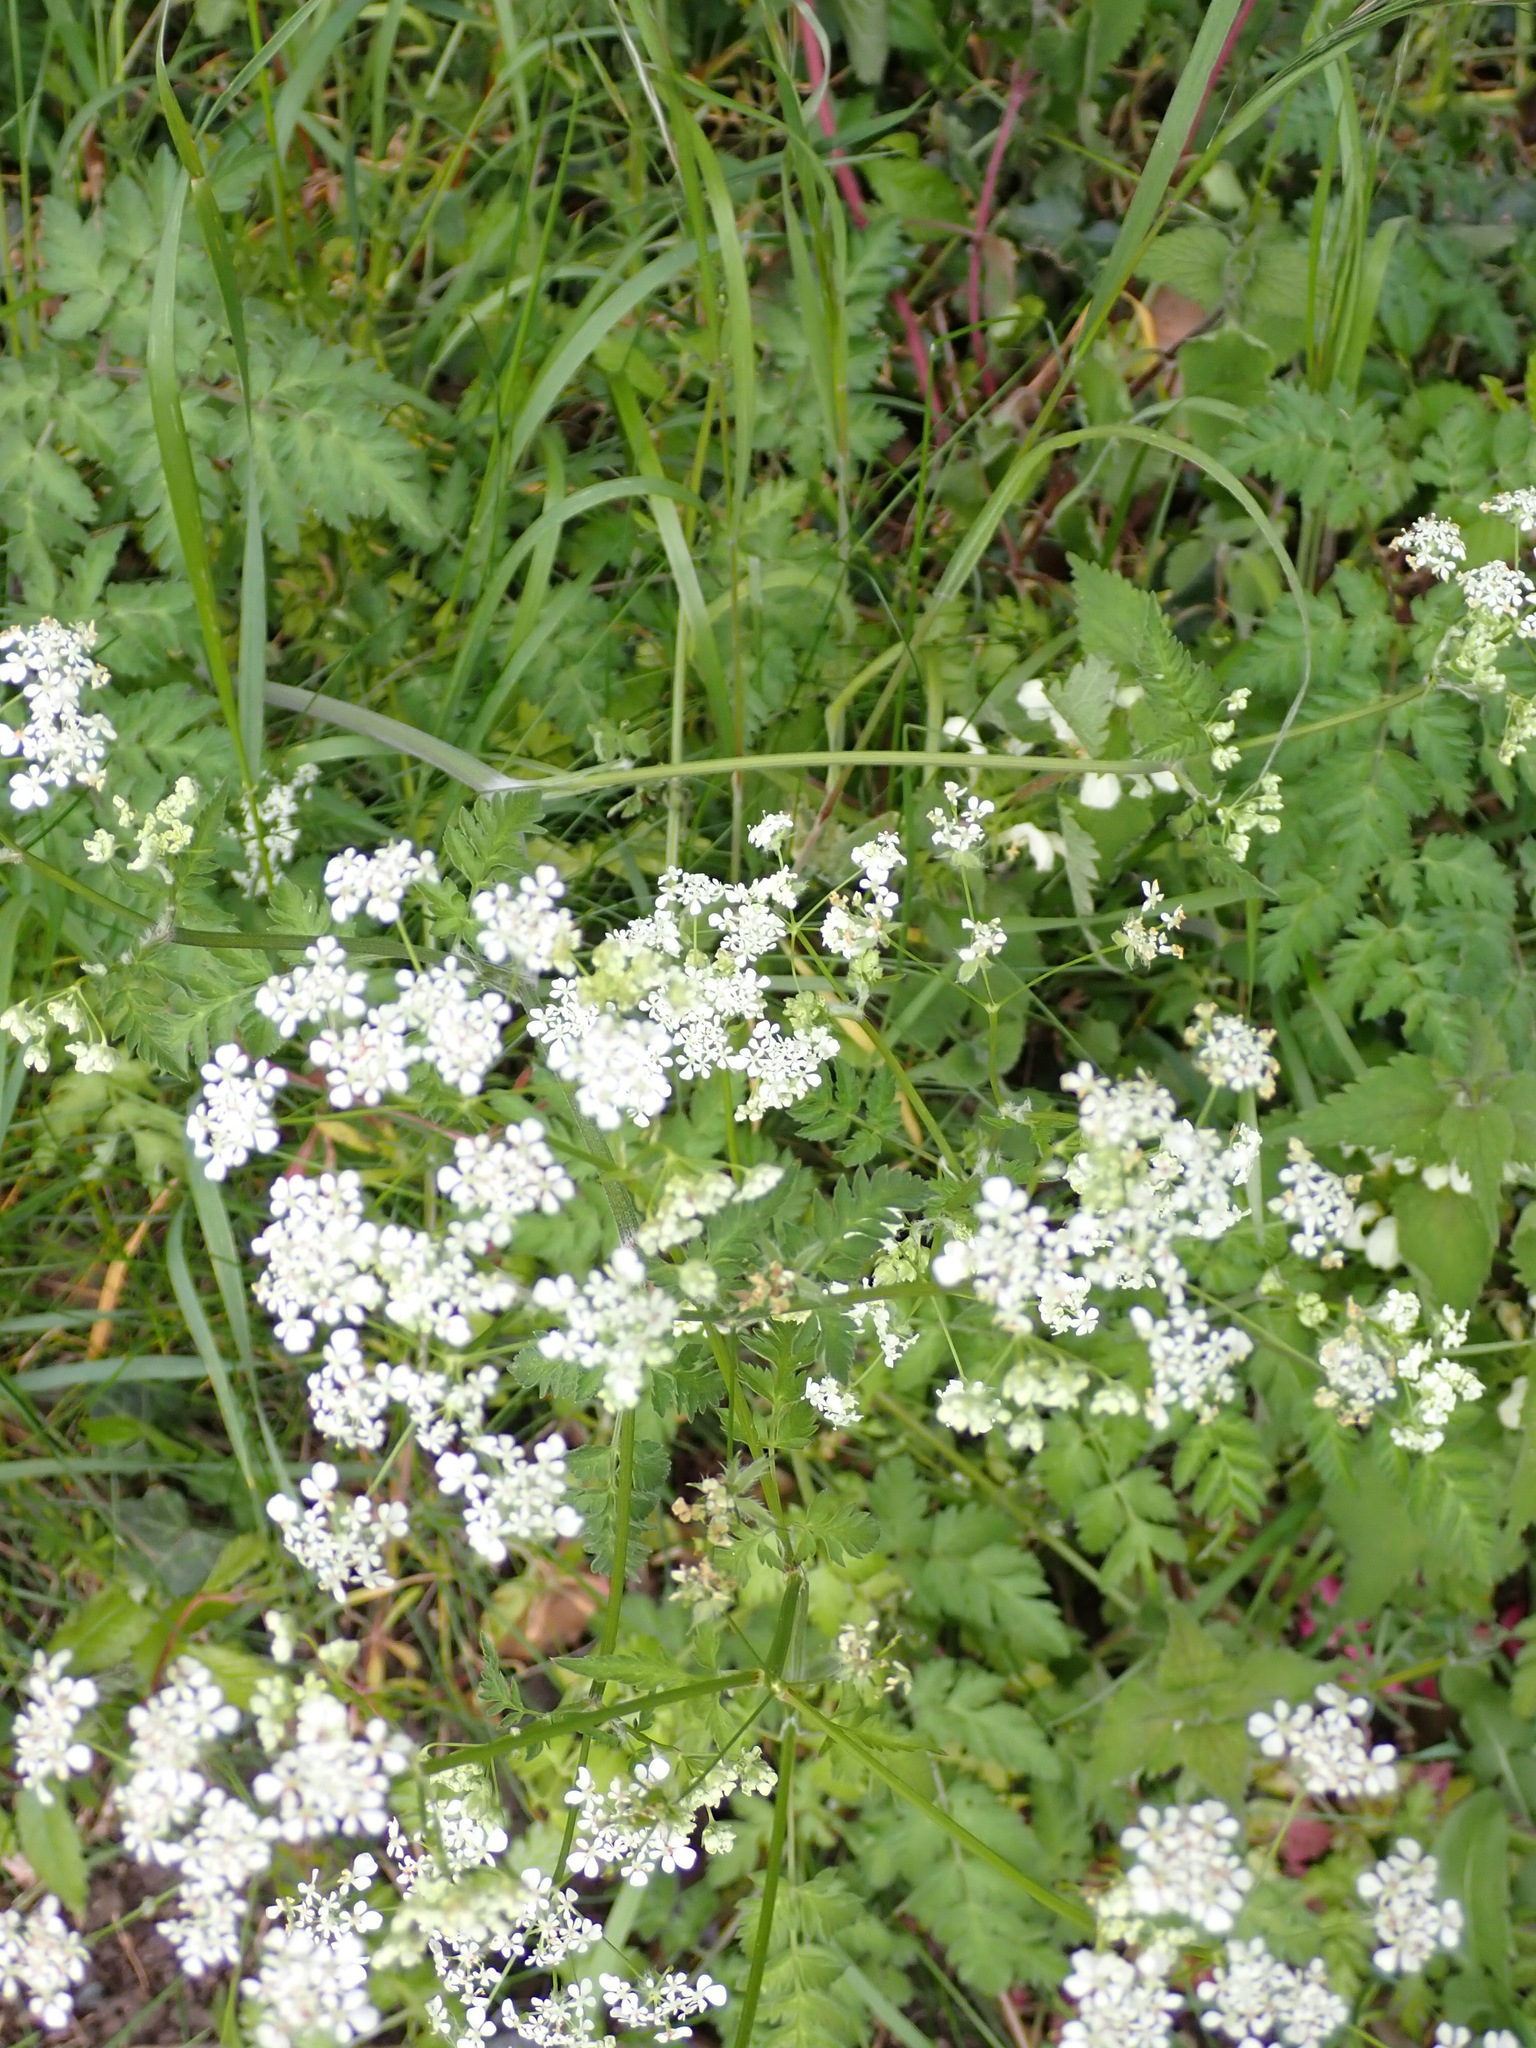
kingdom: Plantae
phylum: Tracheophyta
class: Magnoliopsida
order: Apiales
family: Apiaceae
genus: Anthriscus
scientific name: Anthriscus sylvestris
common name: Cow parsley
